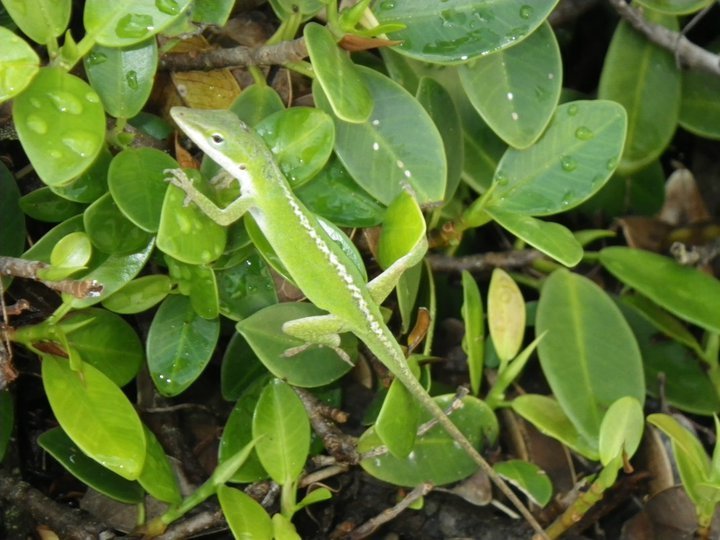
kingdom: Animalia
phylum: Chordata
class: Squamata
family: Dactyloidae
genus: Anolis
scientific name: Anolis carolinensis
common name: Green anole
